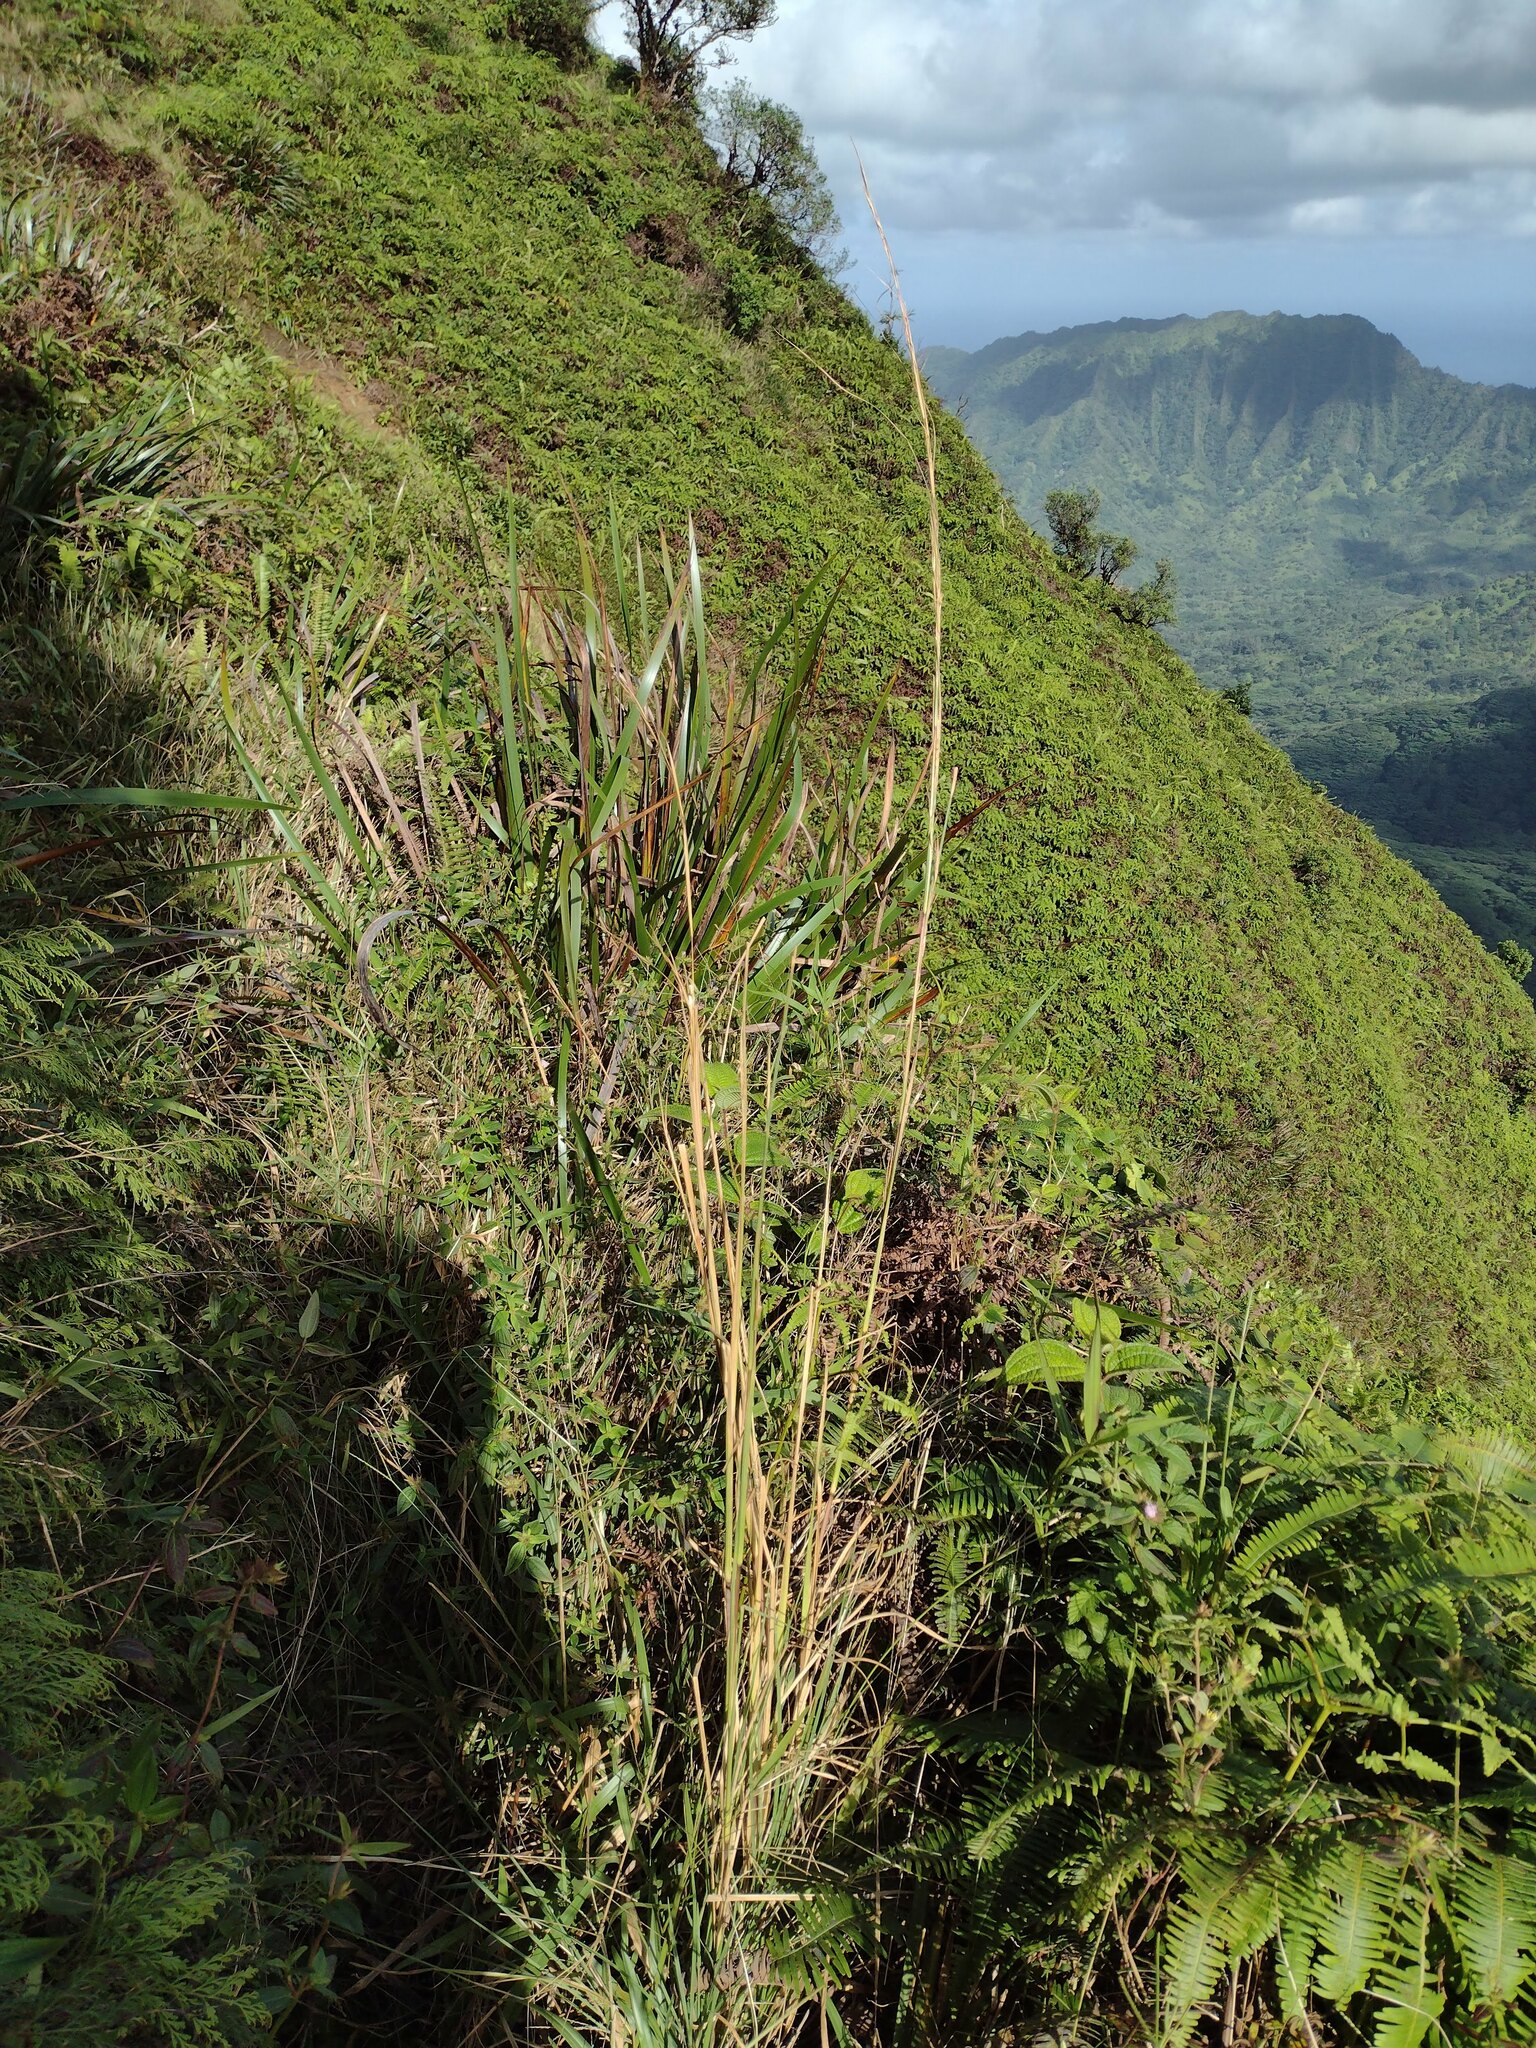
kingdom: Plantae
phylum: Tracheophyta
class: Liliopsida
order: Poales
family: Poaceae
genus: Andropogon
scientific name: Andropogon virginicus
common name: Broomsedge bluestem
